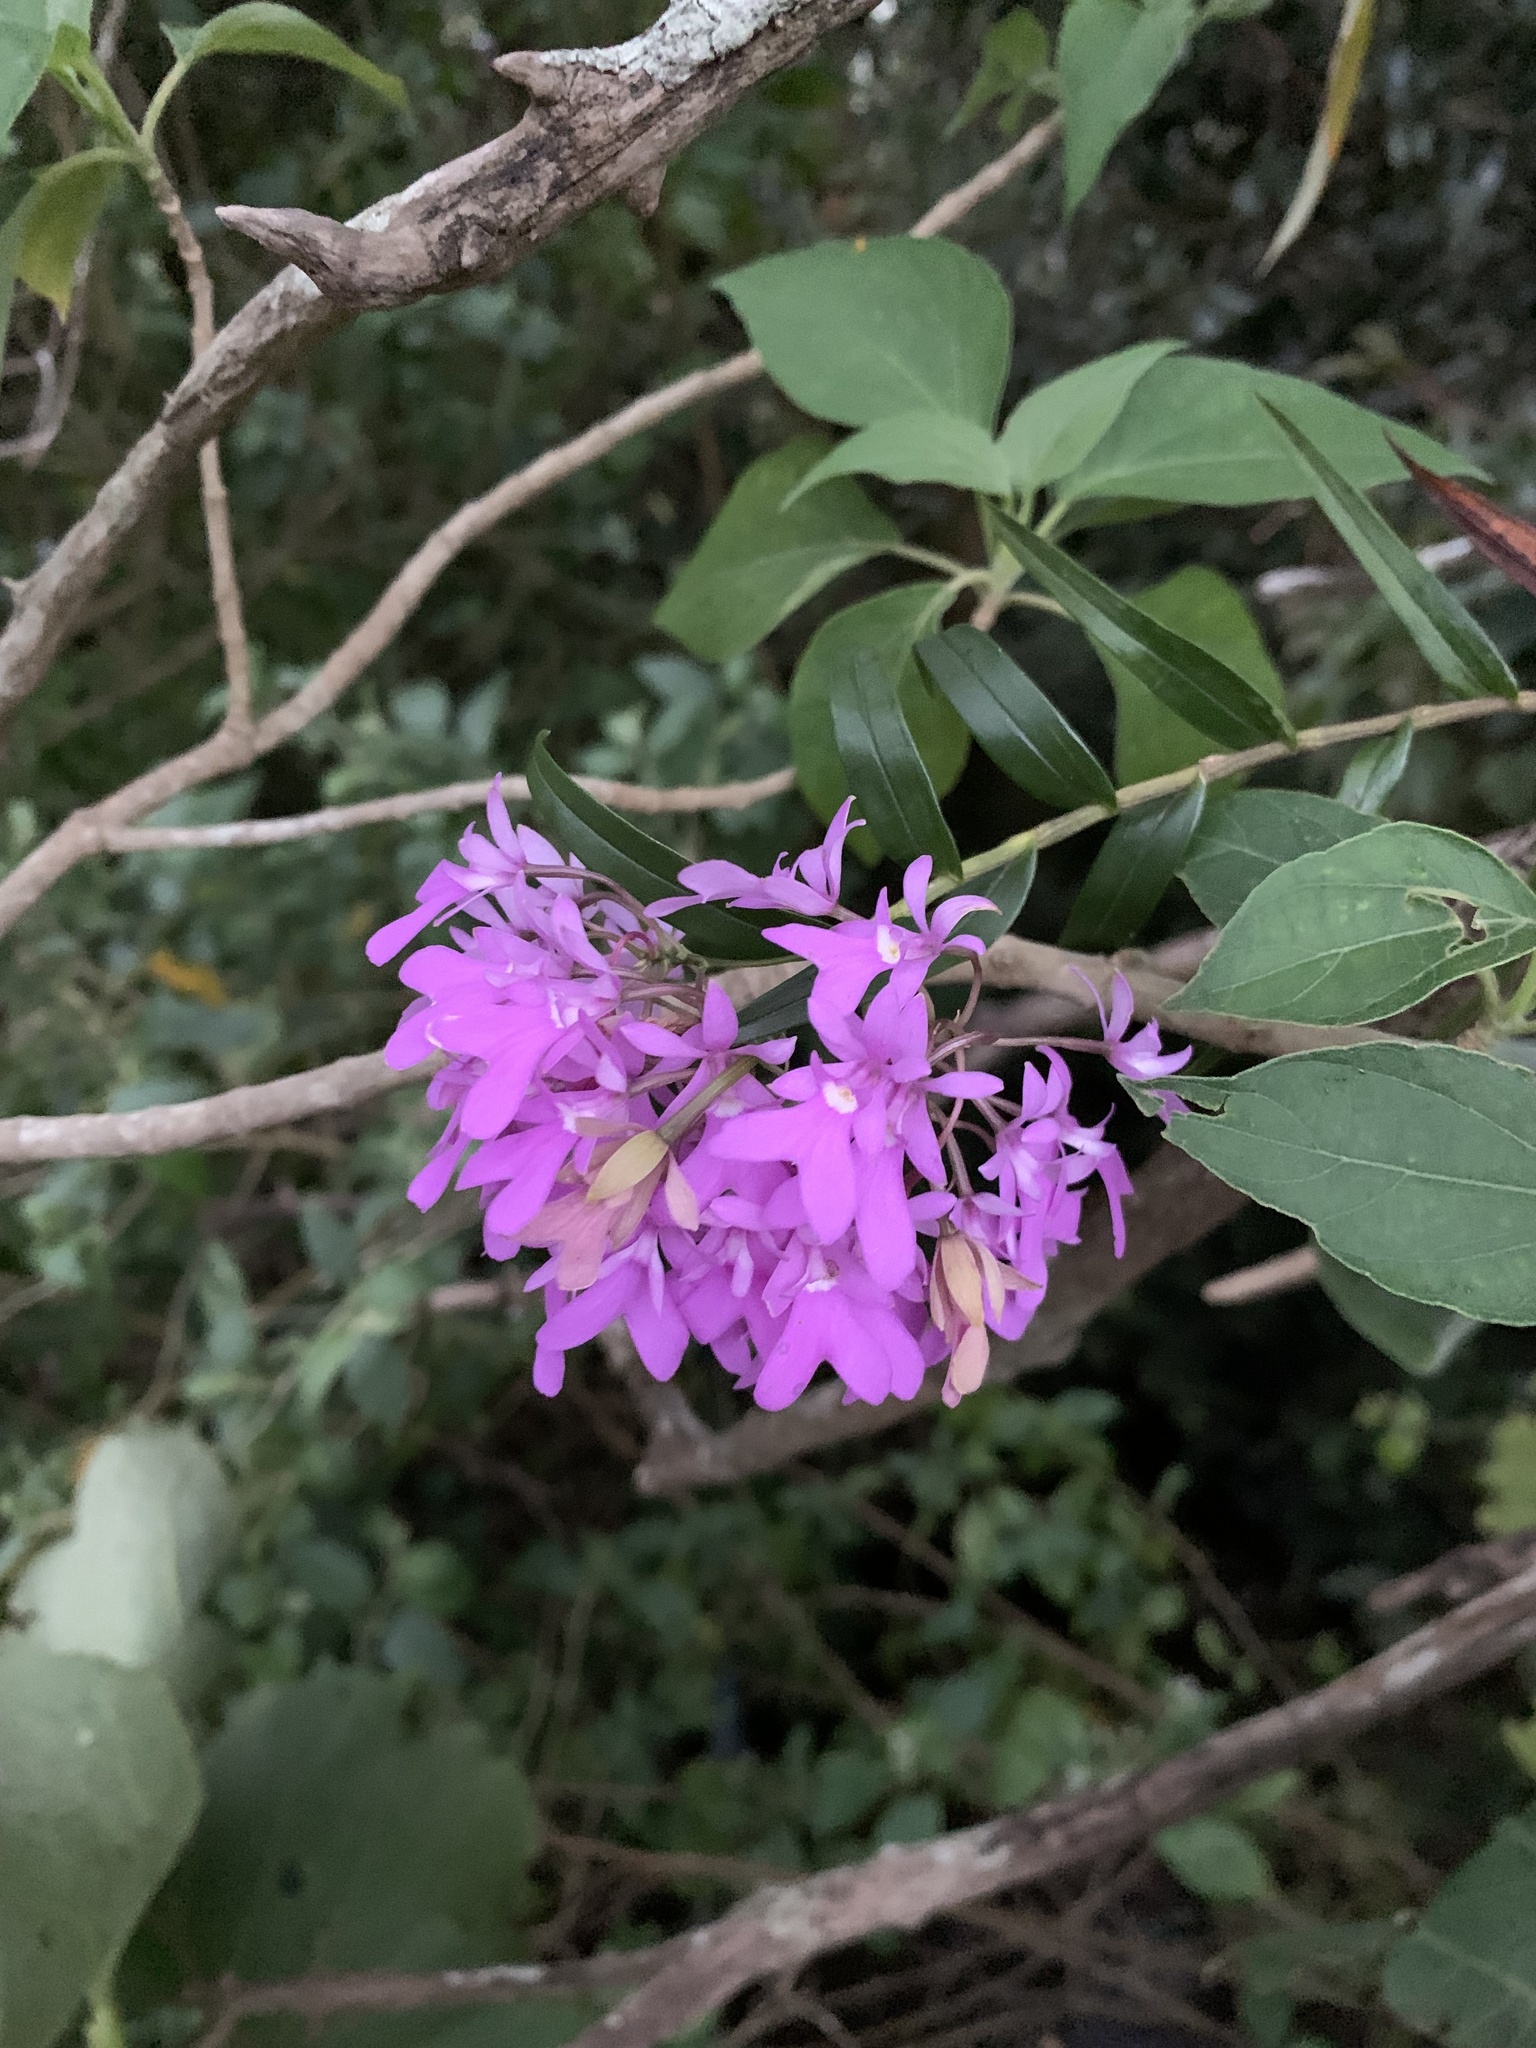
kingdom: Plantae
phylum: Tracheophyta
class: Liliopsida
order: Asparagales
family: Orchidaceae
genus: Epidendrum
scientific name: Epidendrum centropetalum
